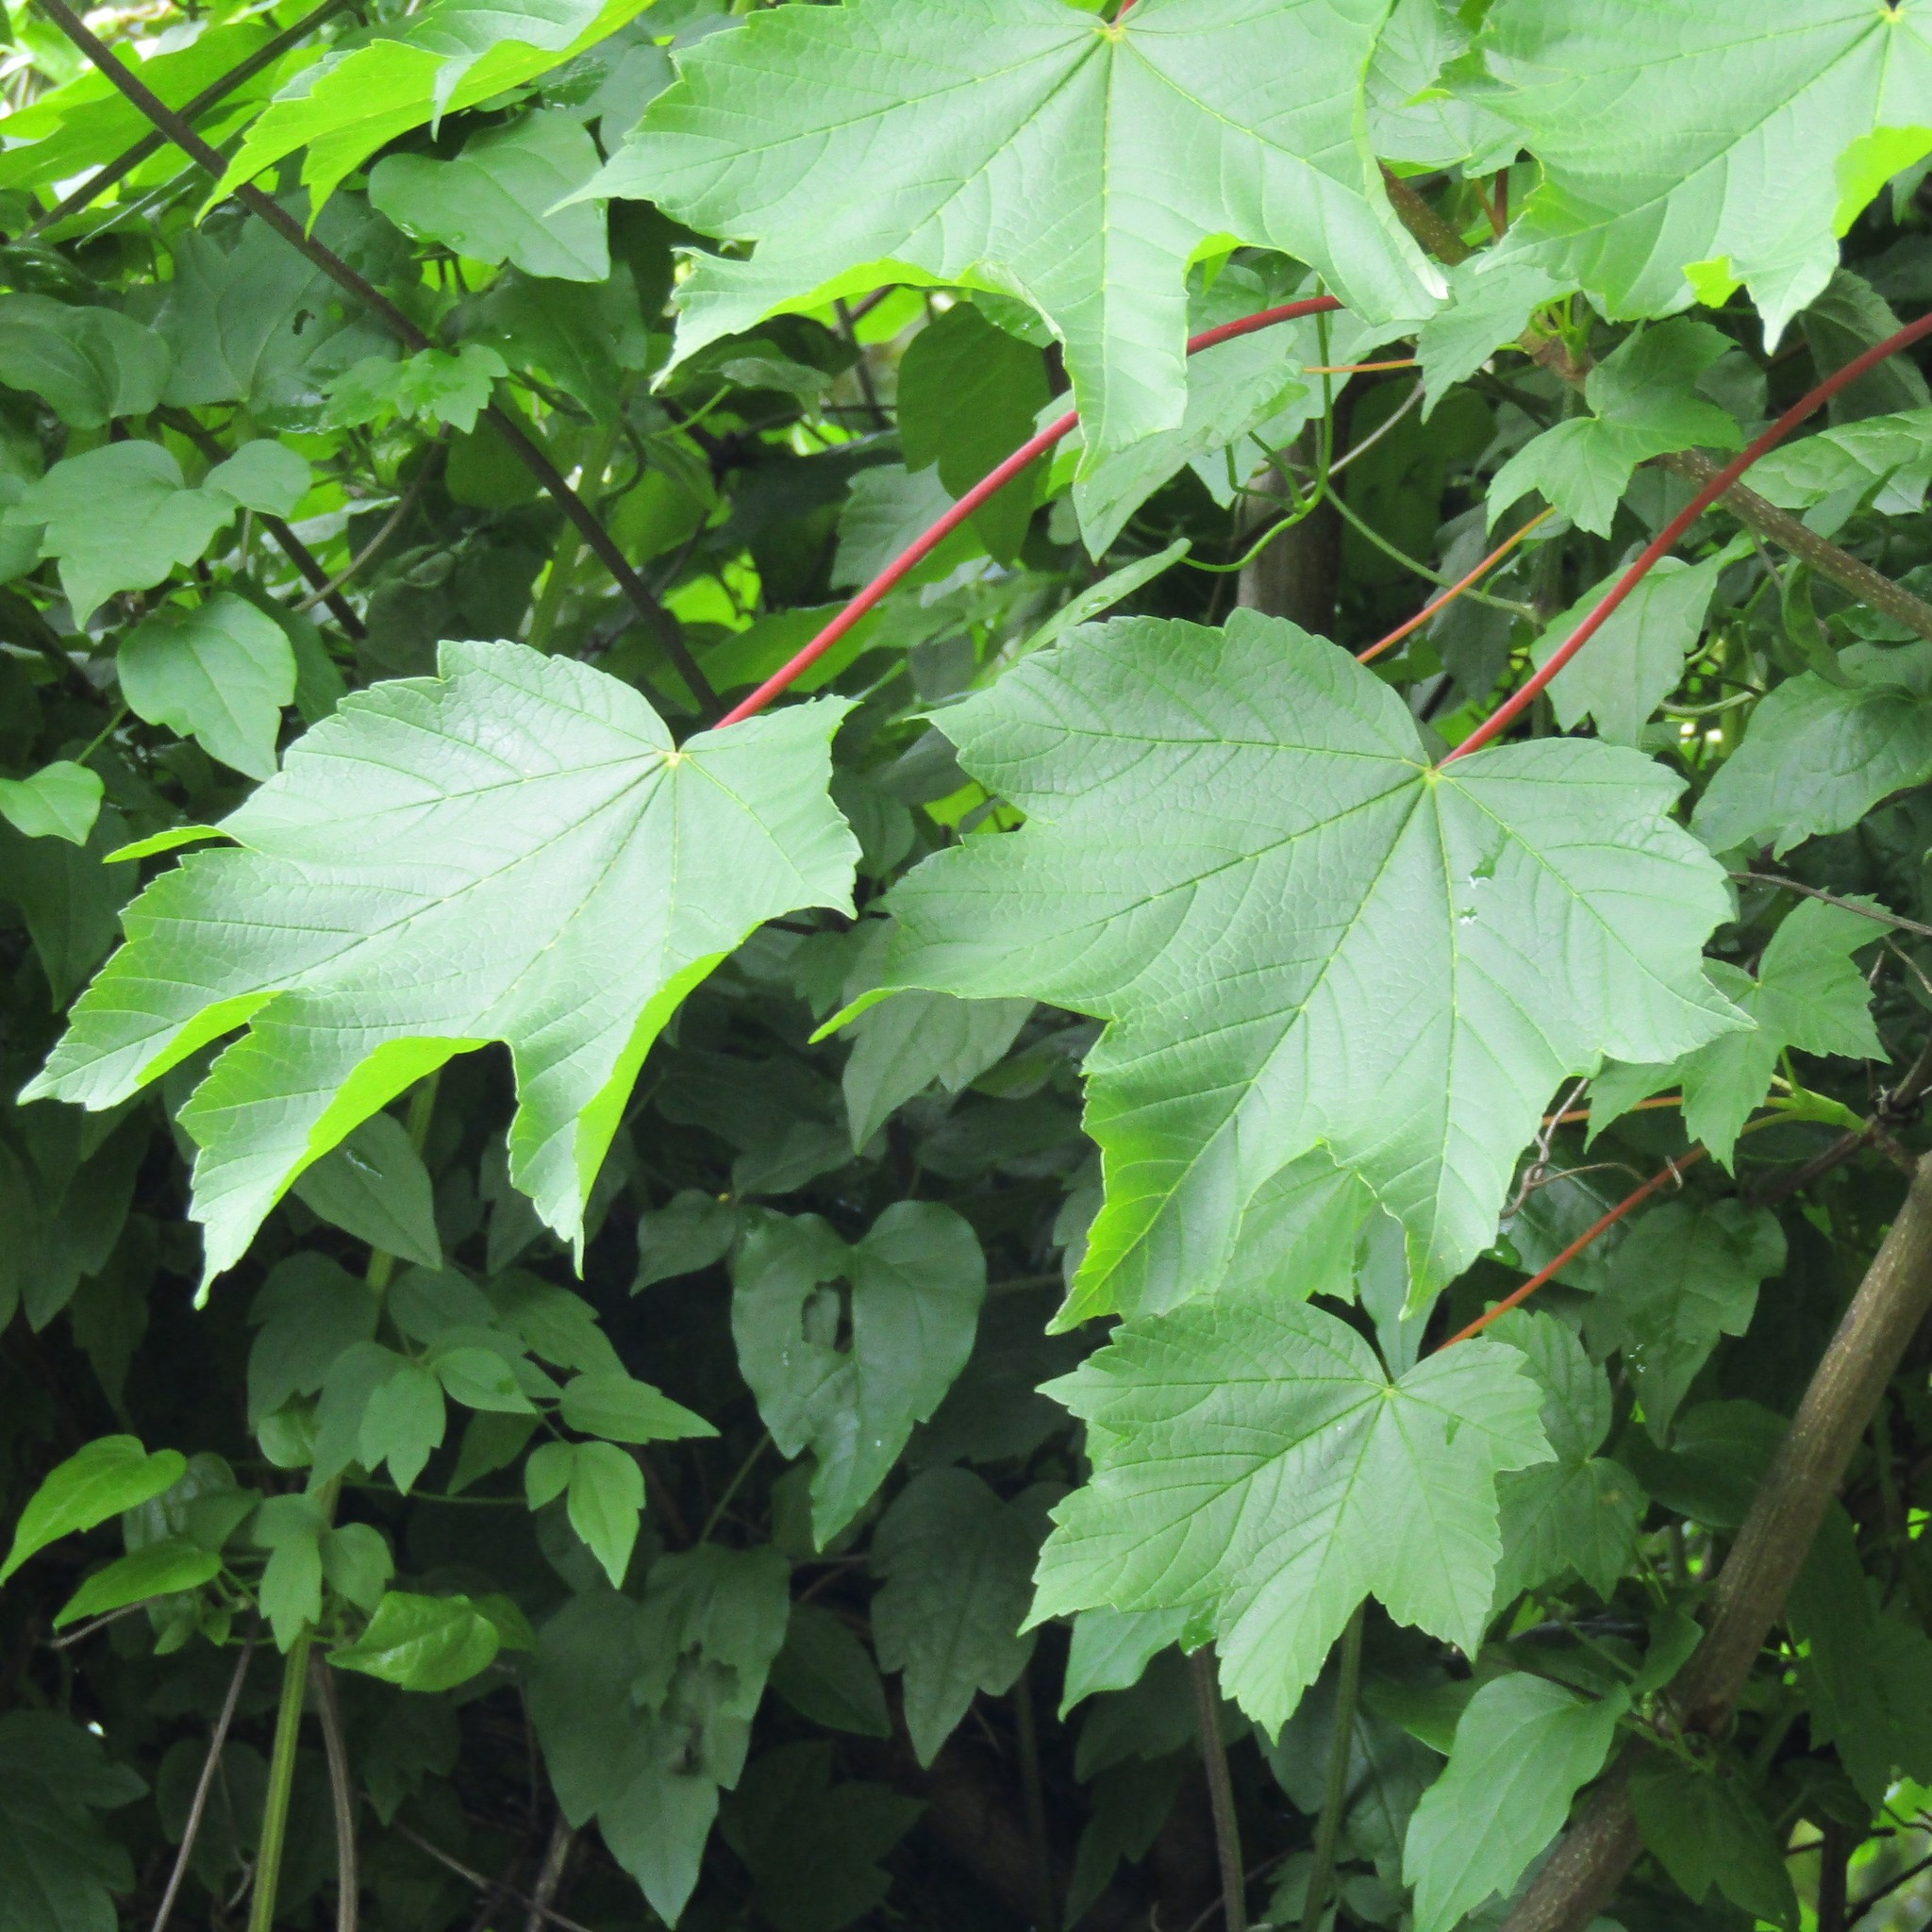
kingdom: Plantae
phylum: Tracheophyta
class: Magnoliopsida
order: Sapindales
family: Sapindaceae
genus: Acer
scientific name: Acer pseudoplatanus
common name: Sycamore
